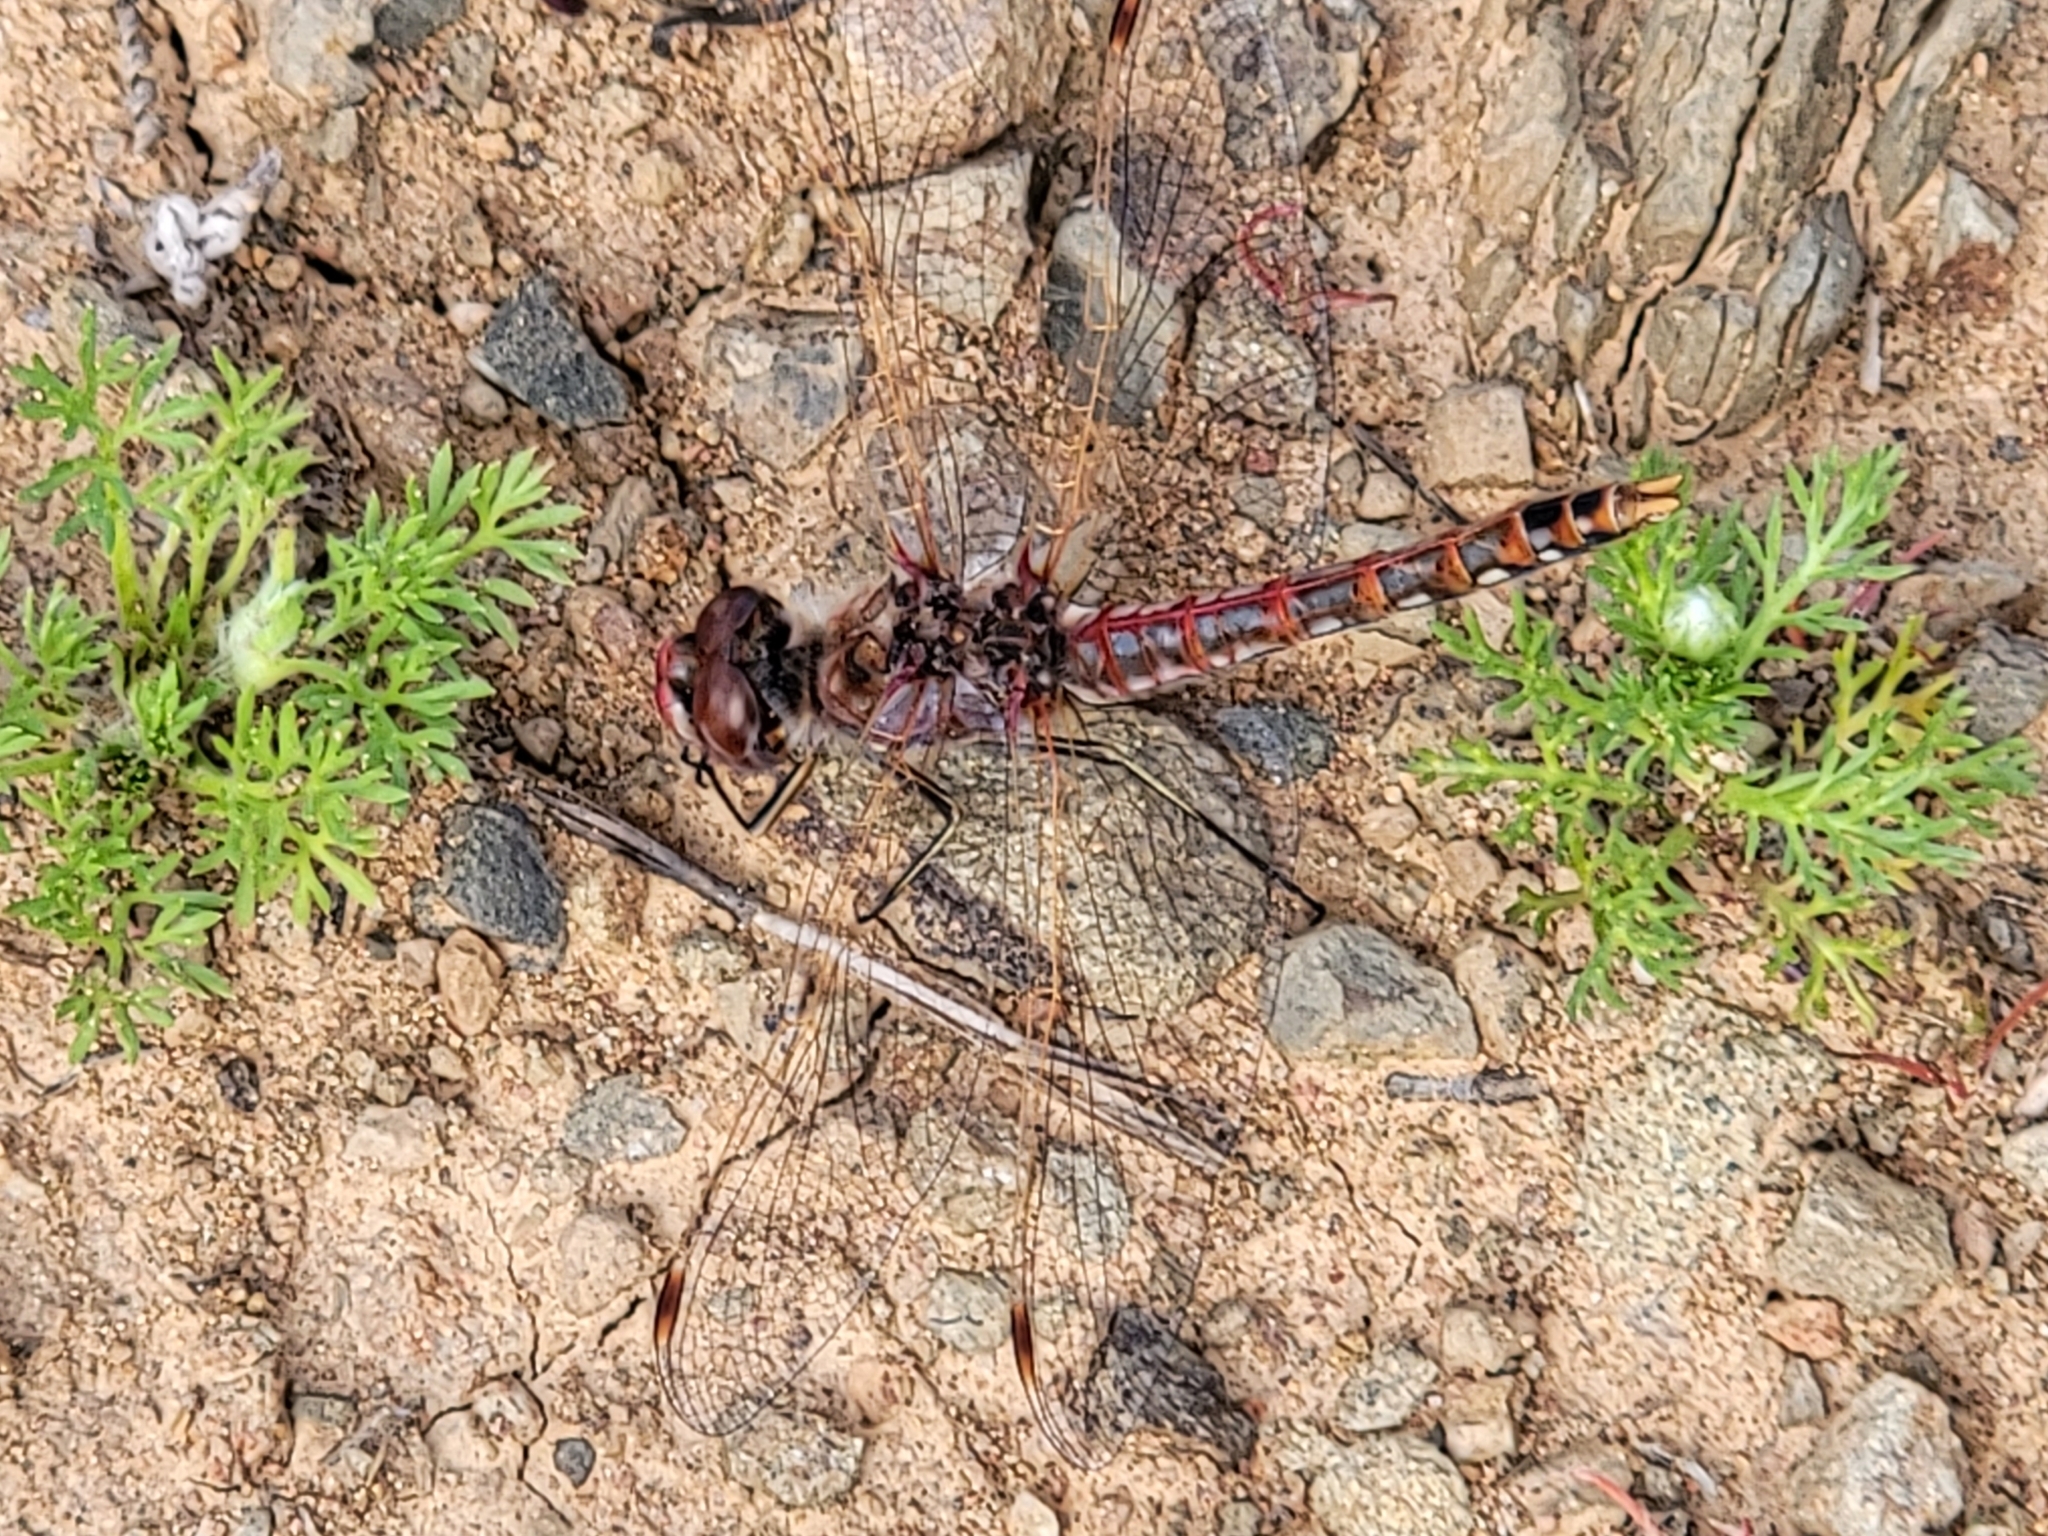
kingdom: Animalia
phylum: Arthropoda
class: Insecta
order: Odonata
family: Libellulidae
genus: Sympetrum
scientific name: Sympetrum corruptum
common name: Variegated meadowhawk
